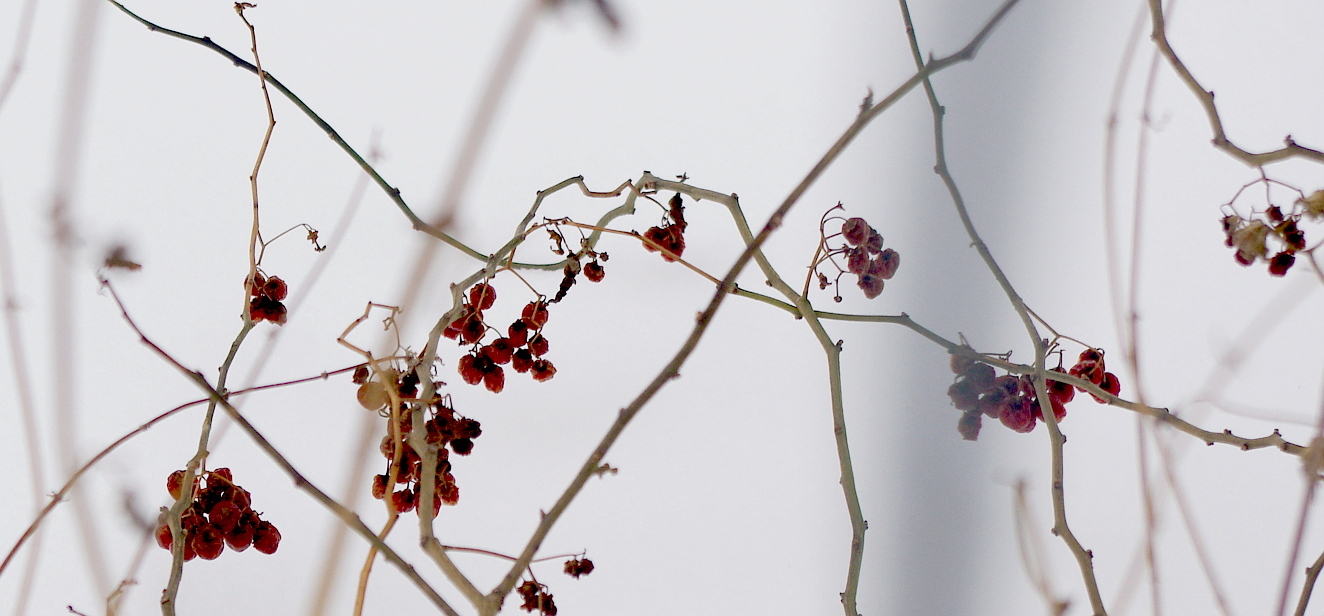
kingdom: Plantae
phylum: Tracheophyta
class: Magnoliopsida
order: Solanales
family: Solanaceae
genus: Solanum
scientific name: Solanum dulcamara
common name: Climbing nightshade
